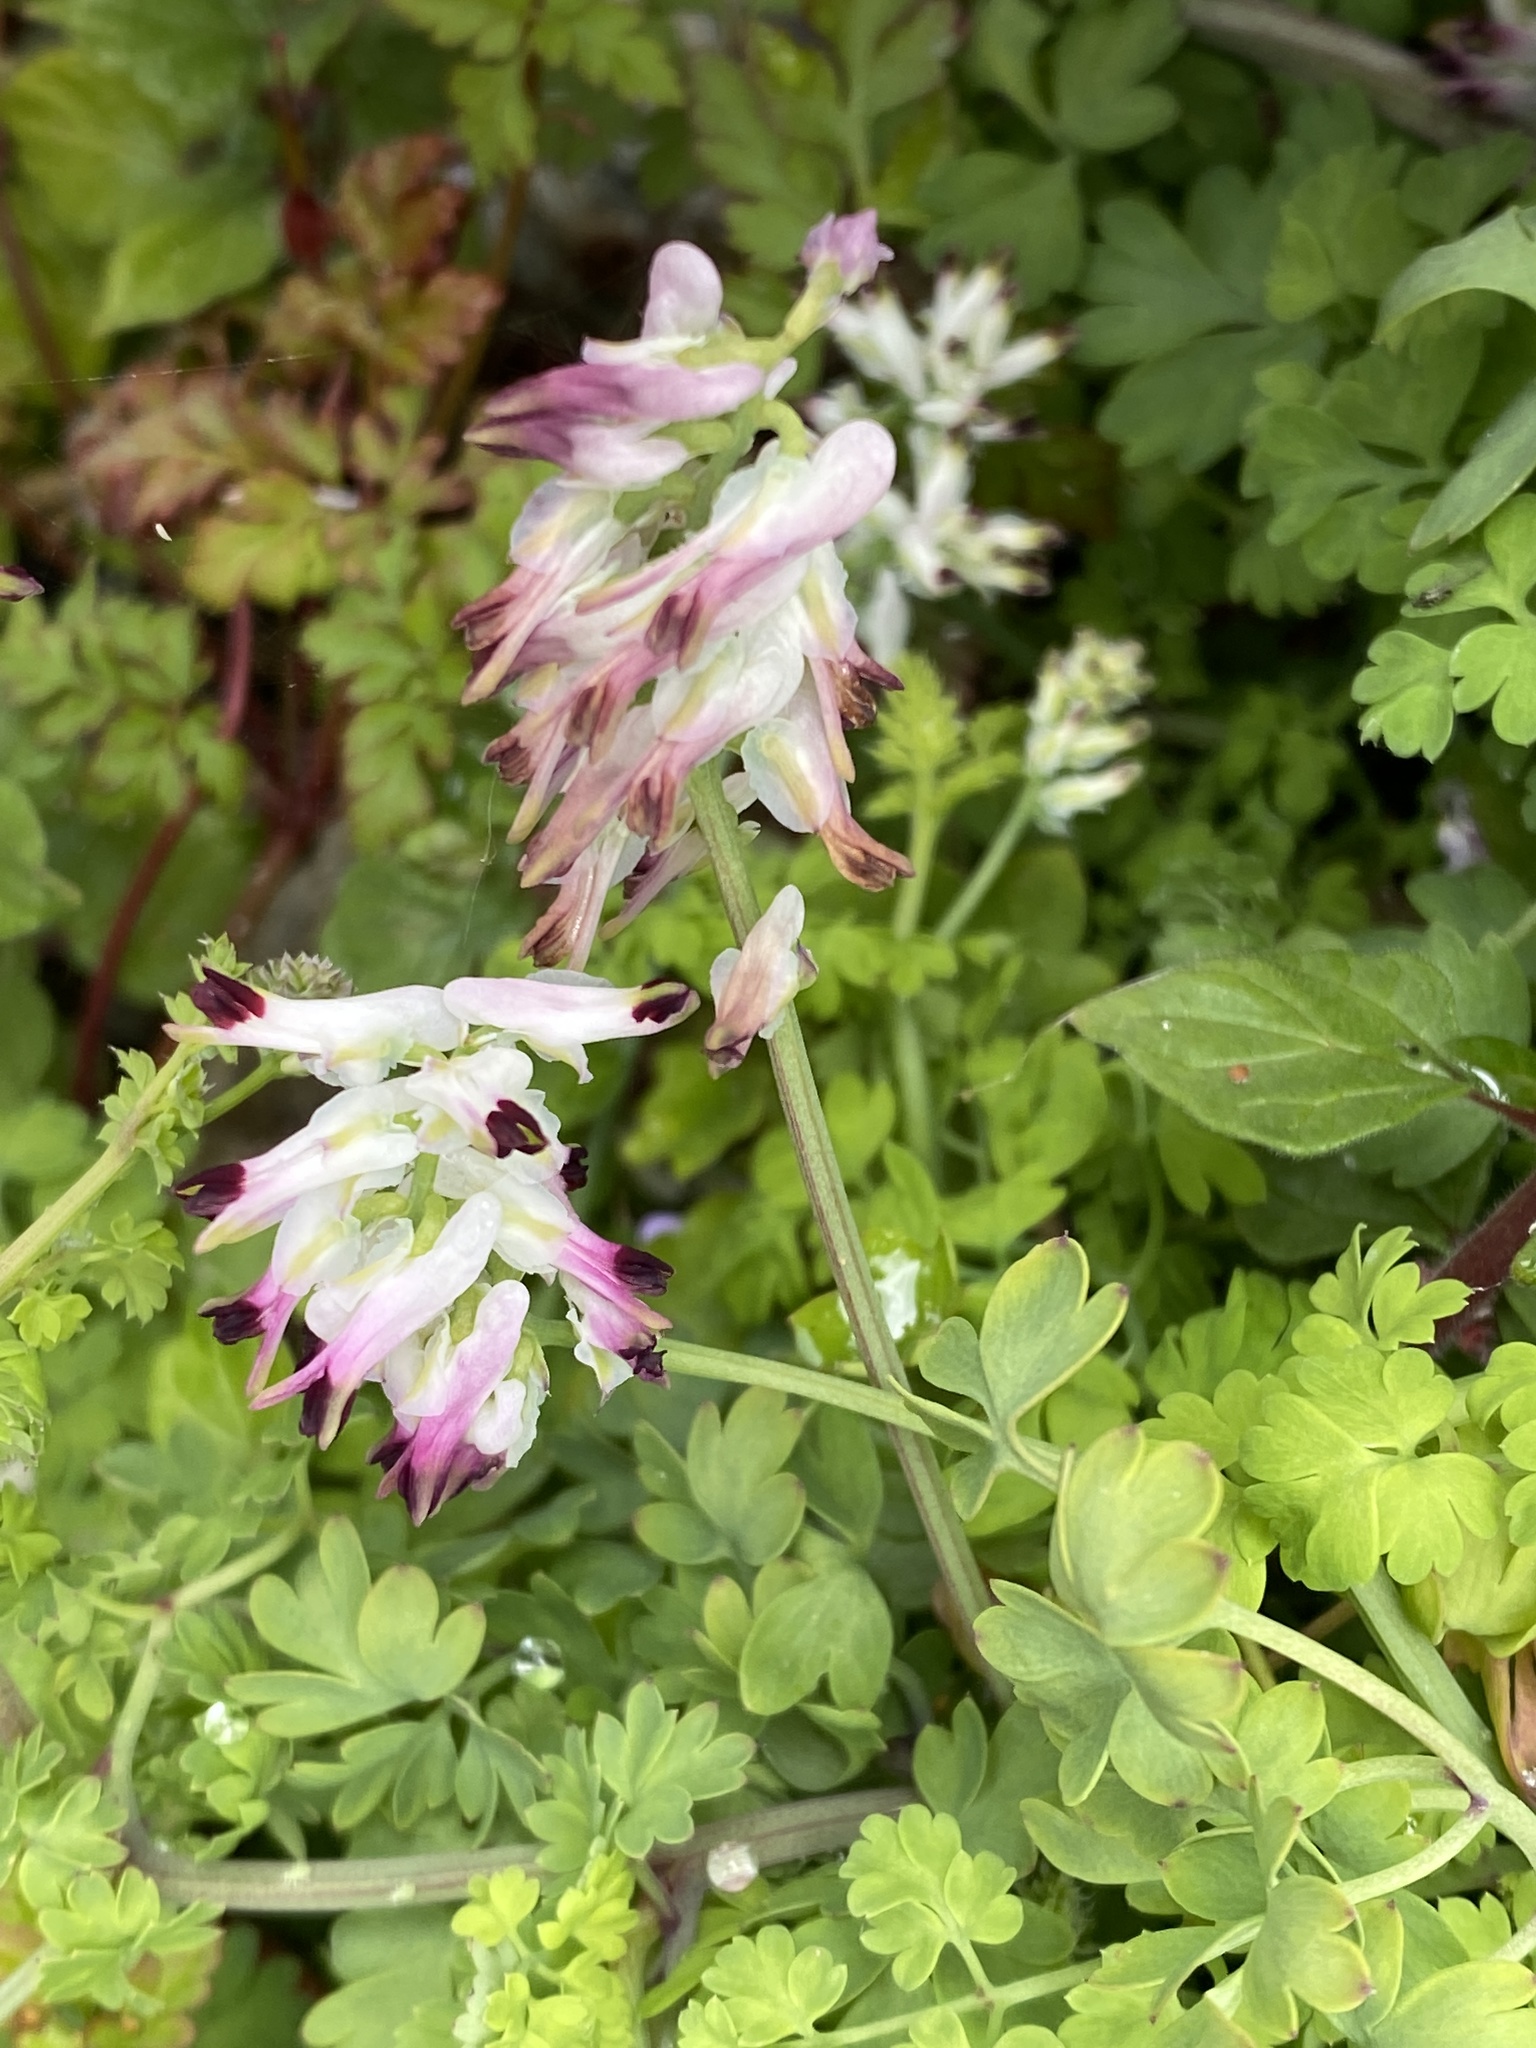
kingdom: Plantae
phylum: Tracheophyta
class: Magnoliopsida
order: Ranunculales
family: Papaveraceae
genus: Fumaria
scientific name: Fumaria capreolata
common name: White ramping-fumitory
